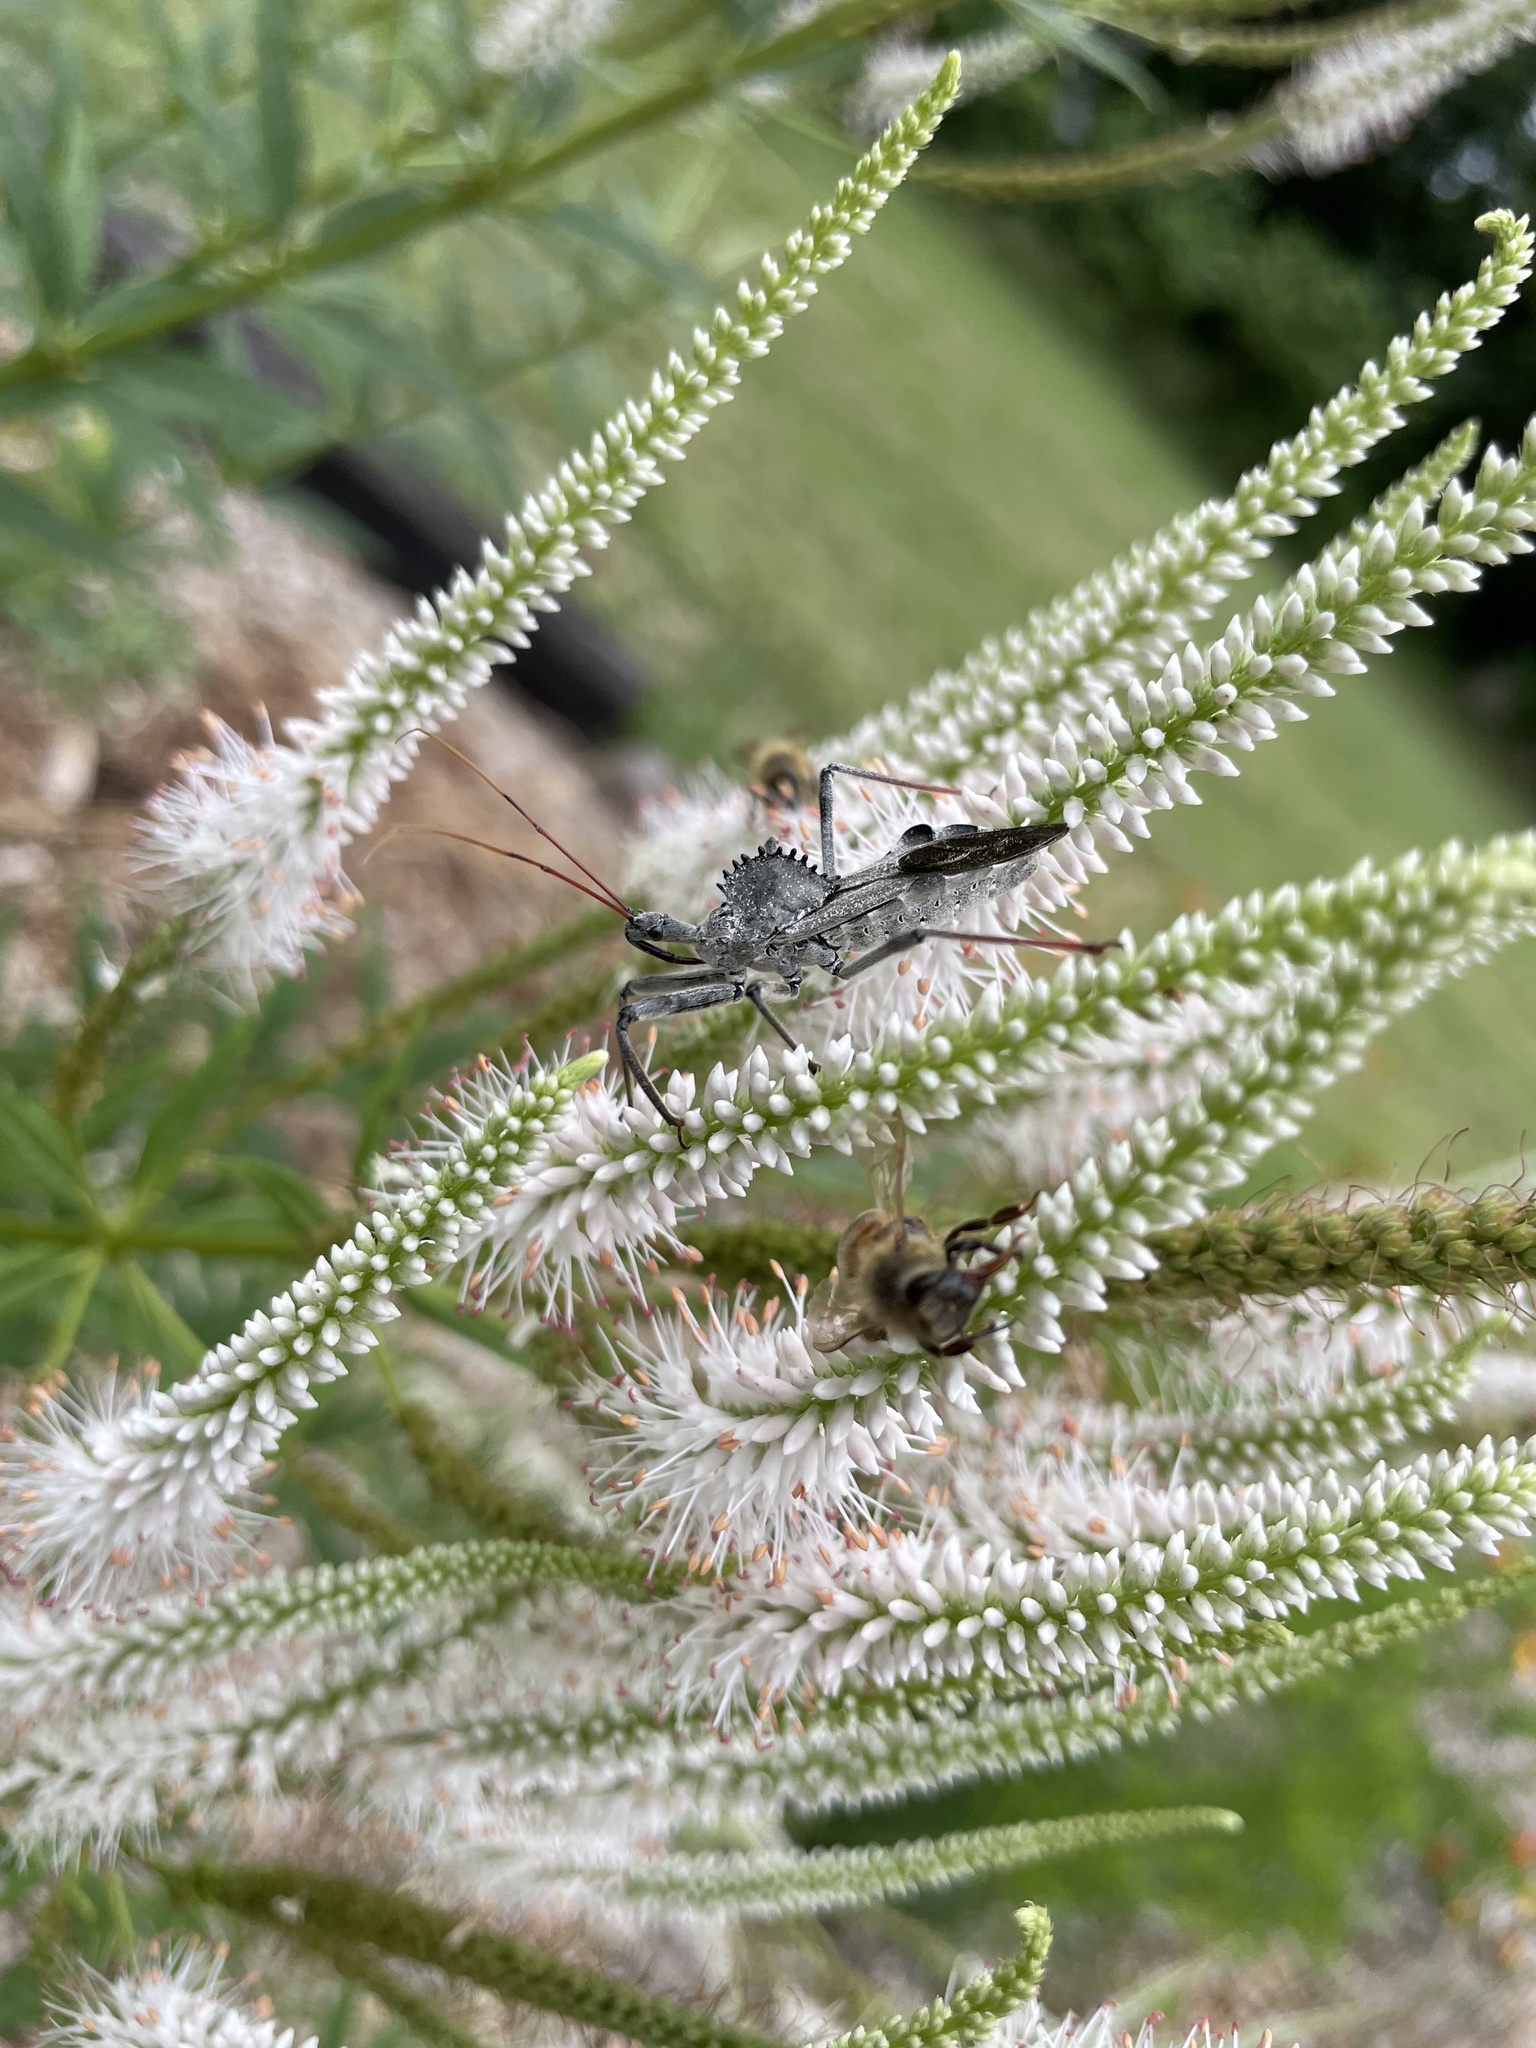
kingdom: Animalia
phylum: Arthropoda
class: Insecta
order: Hemiptera
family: Reduviidae
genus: Arilus
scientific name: Arilus cristatus
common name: North american wheel bug
